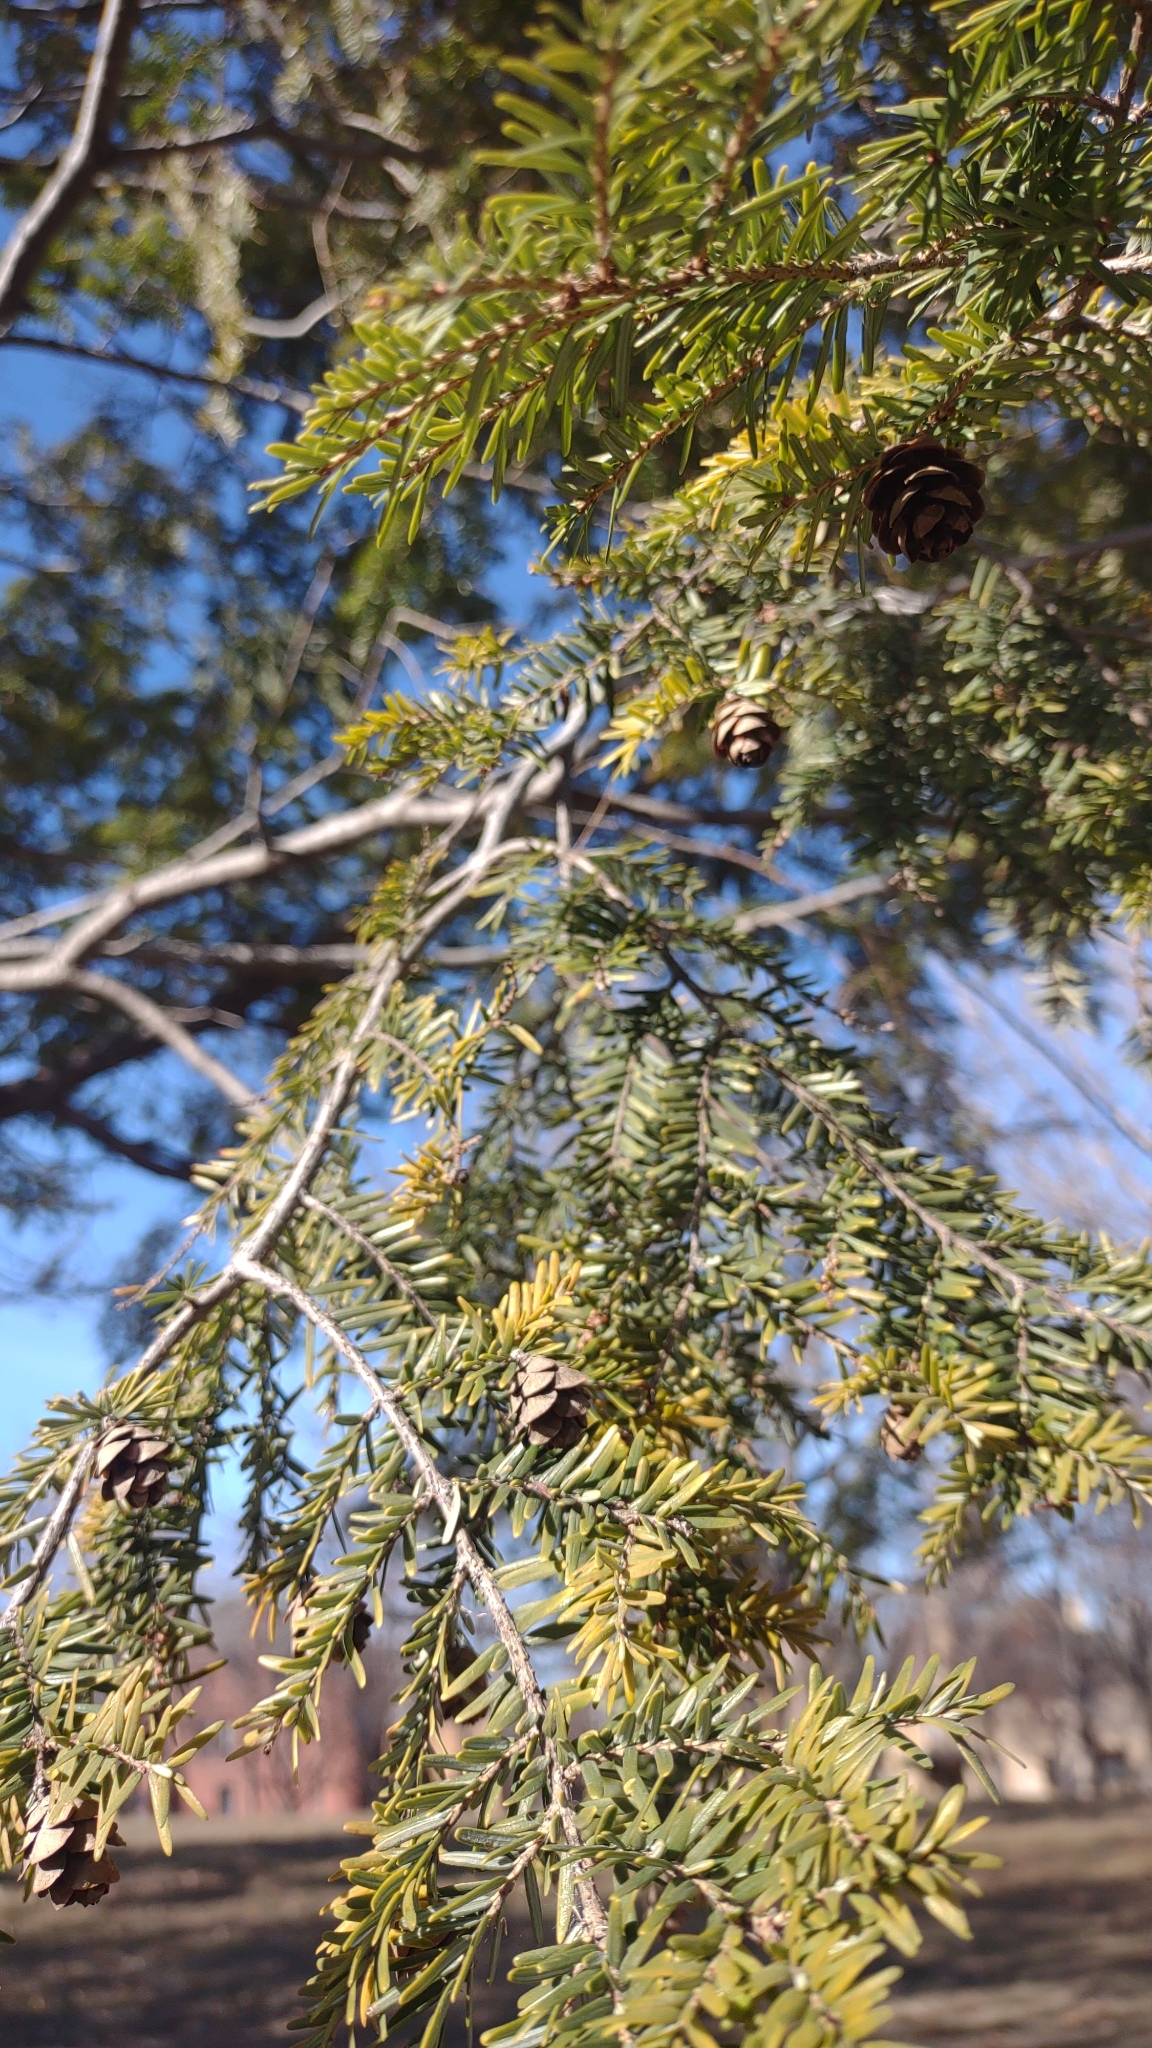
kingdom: Plantae
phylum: Tracheophyta
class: Pinopsida
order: Pinales
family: Pinaceae
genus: Tsuga
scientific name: Tsuga canadensis
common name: Eastern hemlock
